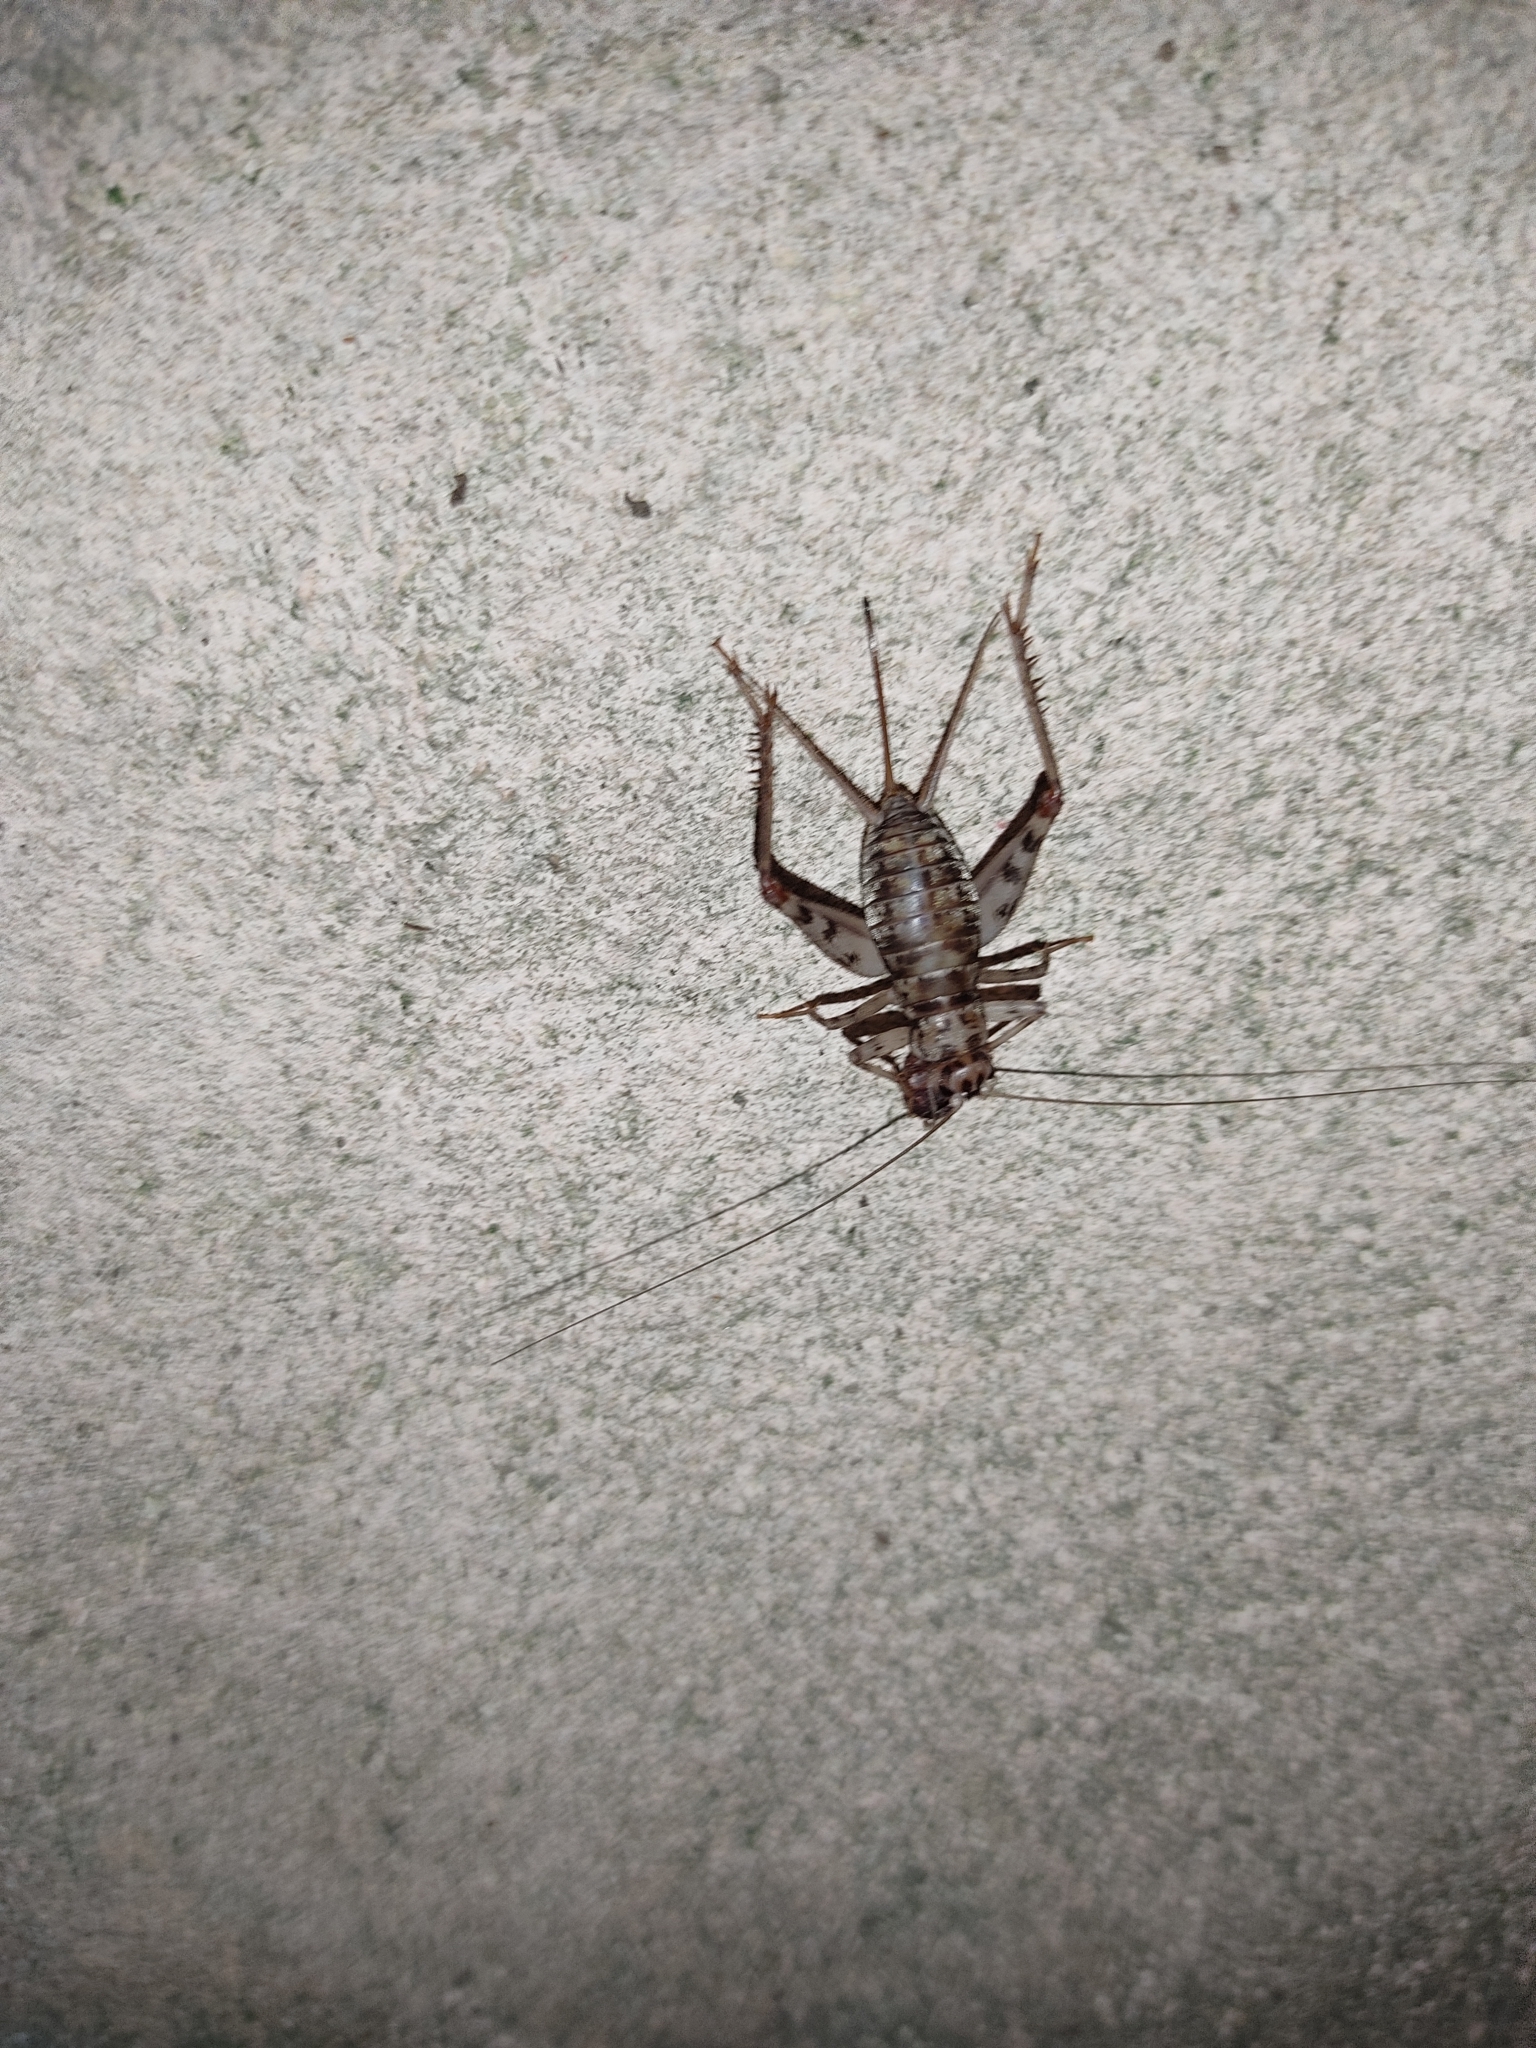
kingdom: Animalia
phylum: Arthropoda
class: Insecta
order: Orthoptera
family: Gryllidae
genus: Gryllomorpha
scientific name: Gryllomorpha dalmatina
